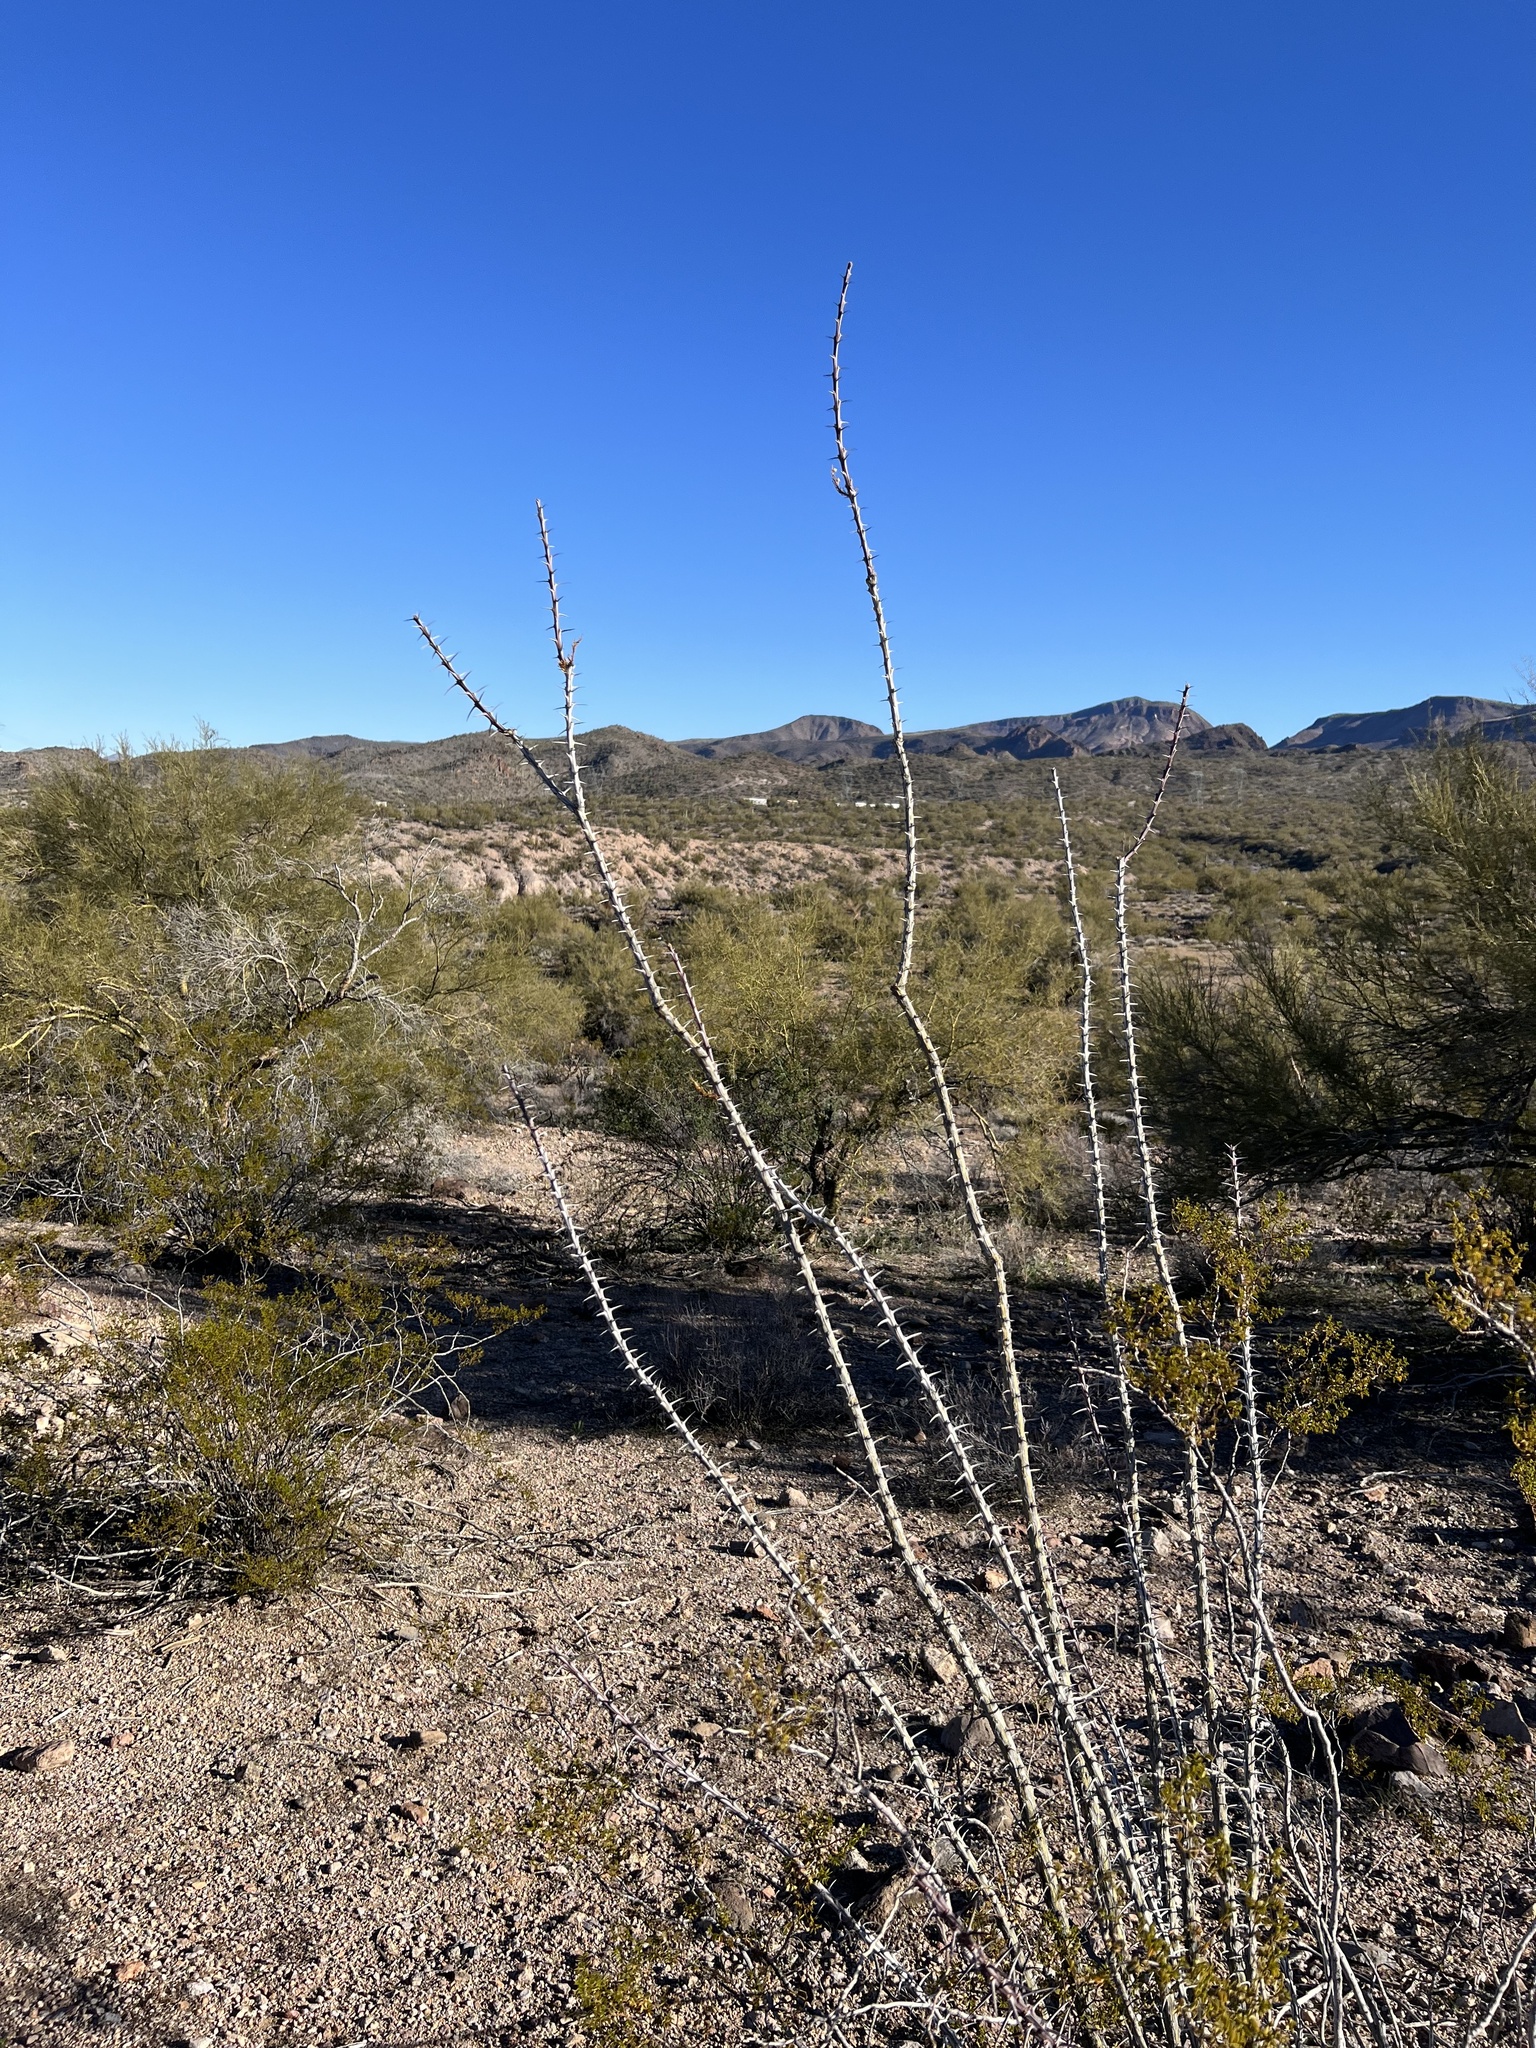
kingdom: Plantae
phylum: Tracheophyta
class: Magnoliopsida
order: Ericales
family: Fouquieriaceae
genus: Fouquieria
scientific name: Fouquieria splendens
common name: Vine-cactus
